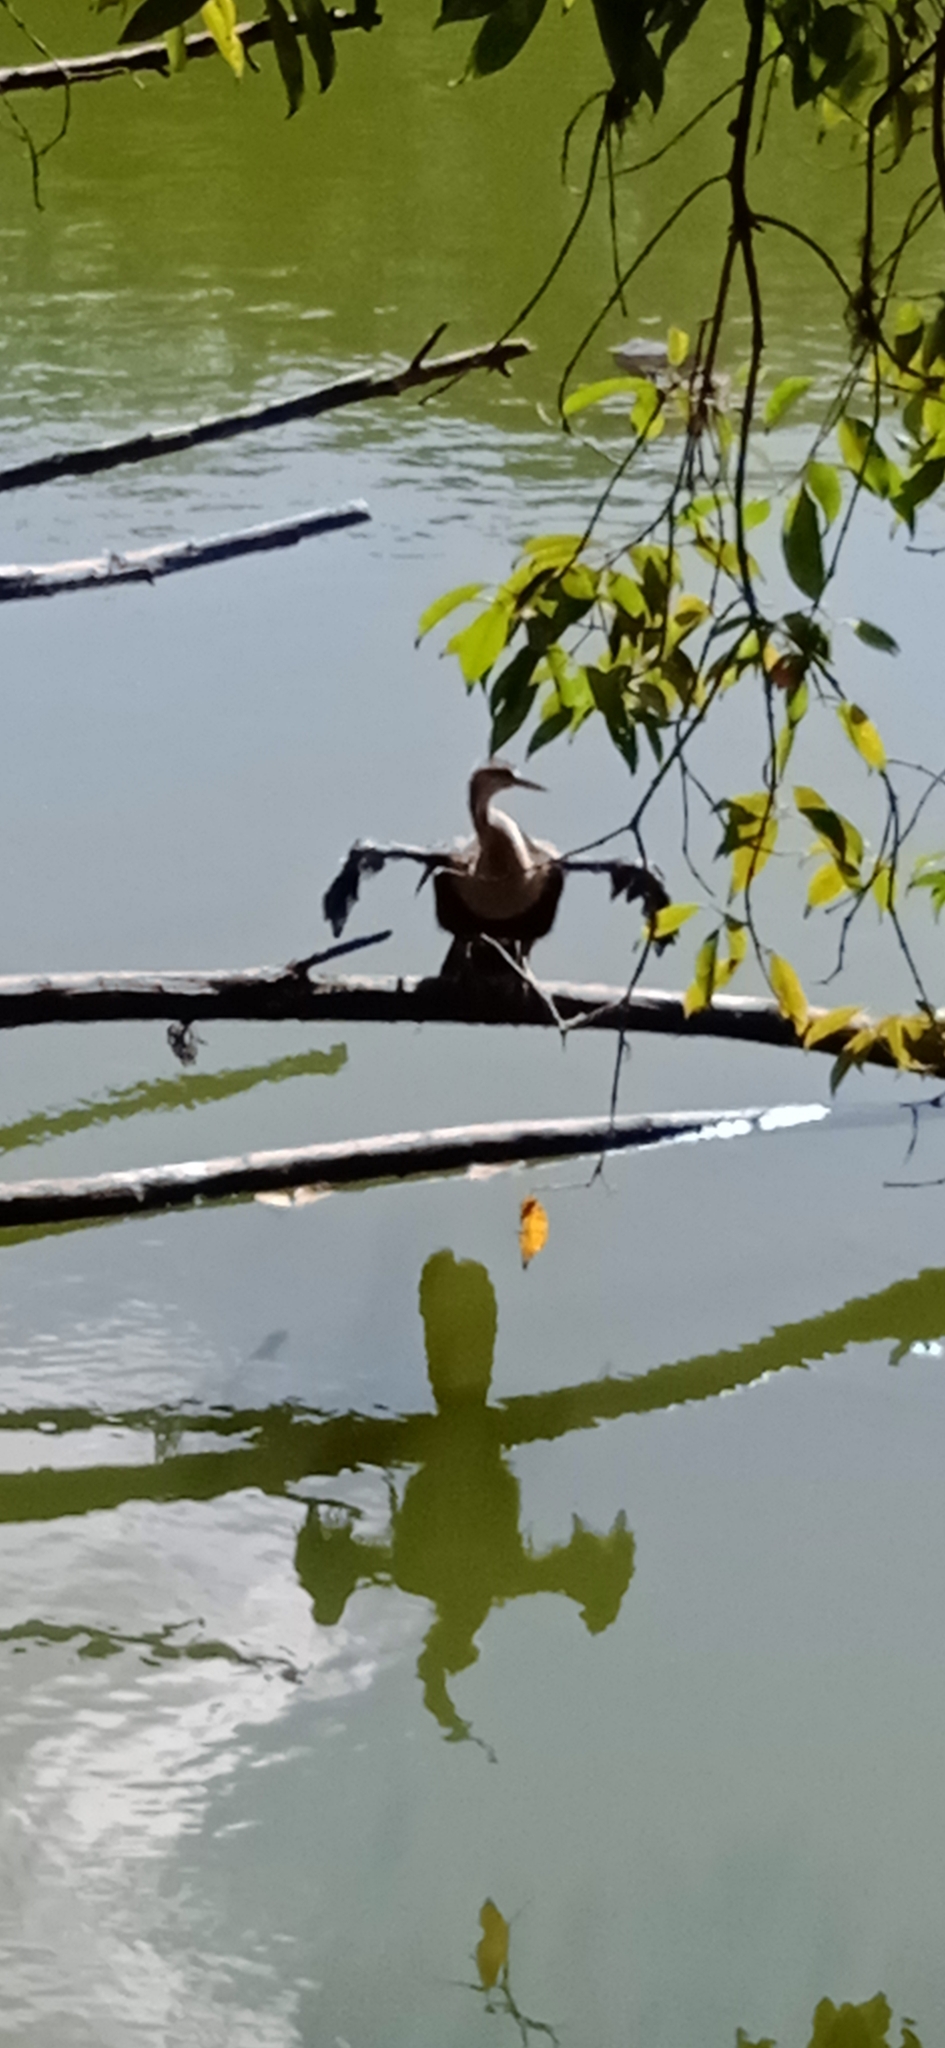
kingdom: Animalia
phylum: Chordata
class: Aves
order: Suliformes
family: Anhingidae
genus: Anhinga
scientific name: Anhinga anhinga
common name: Anhinga
